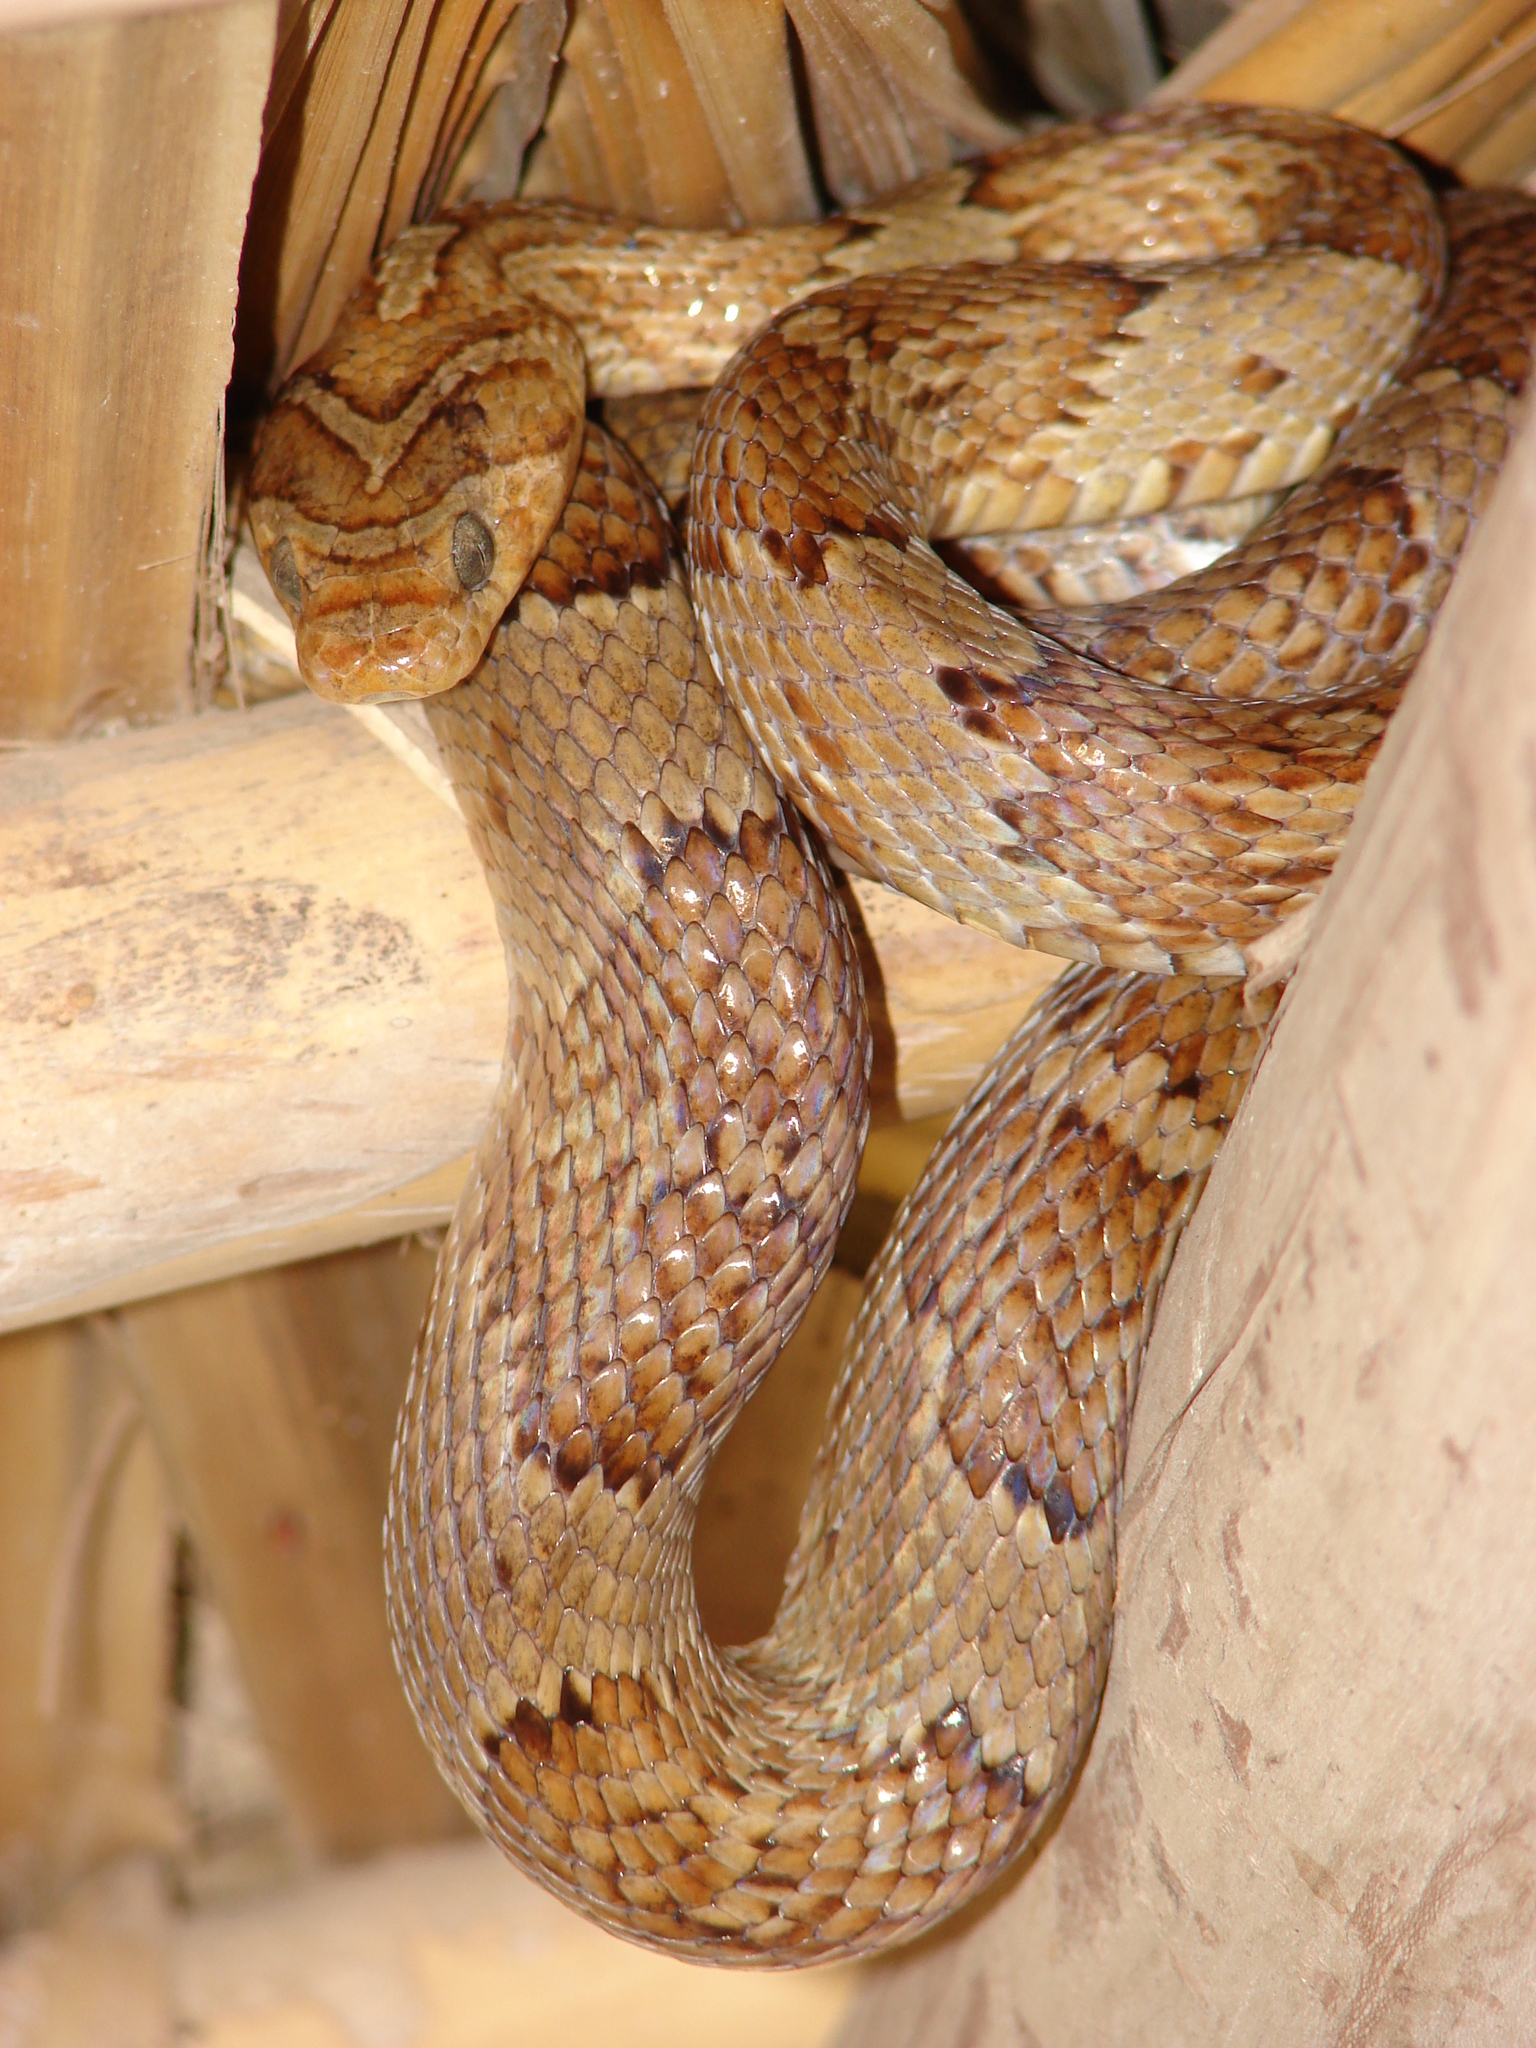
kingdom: Animalia
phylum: Chordata
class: Squamata
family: Colubridae
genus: Trimorphodon
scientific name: Trimorphodon paucimaculatus
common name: Sinaloan lyresnake
